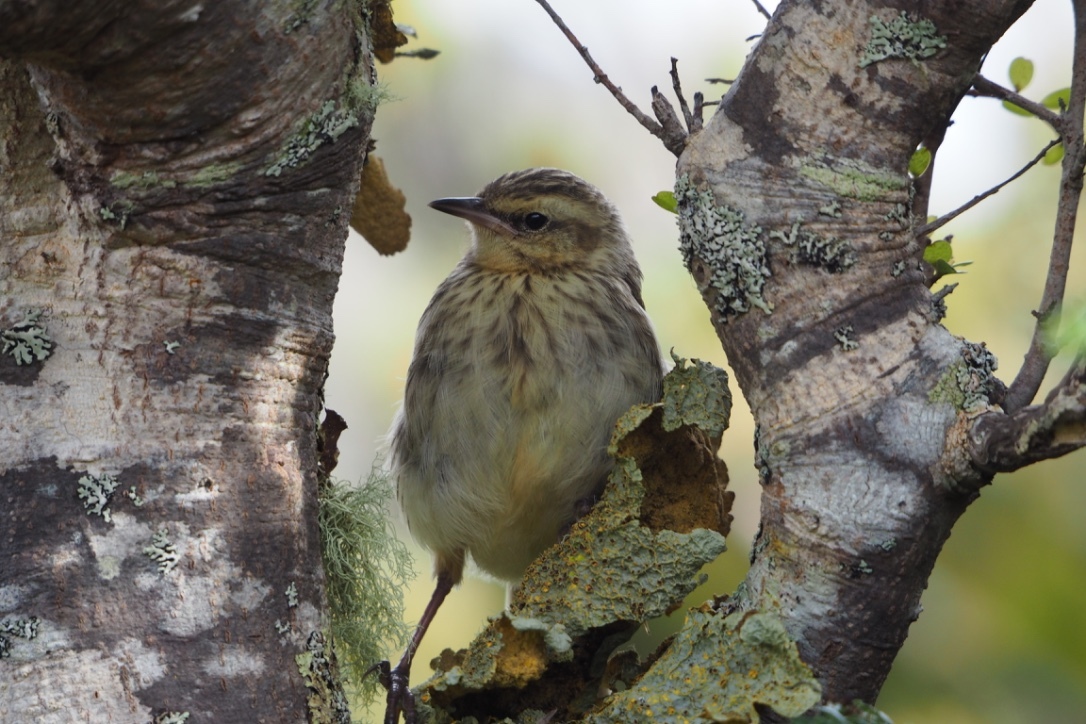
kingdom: Animalia
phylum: Chordata
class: Aves
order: Passeriformes
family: Motacillidae
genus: Anthus
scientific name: Anthus novaeseelandiae
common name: New zealand pipit
